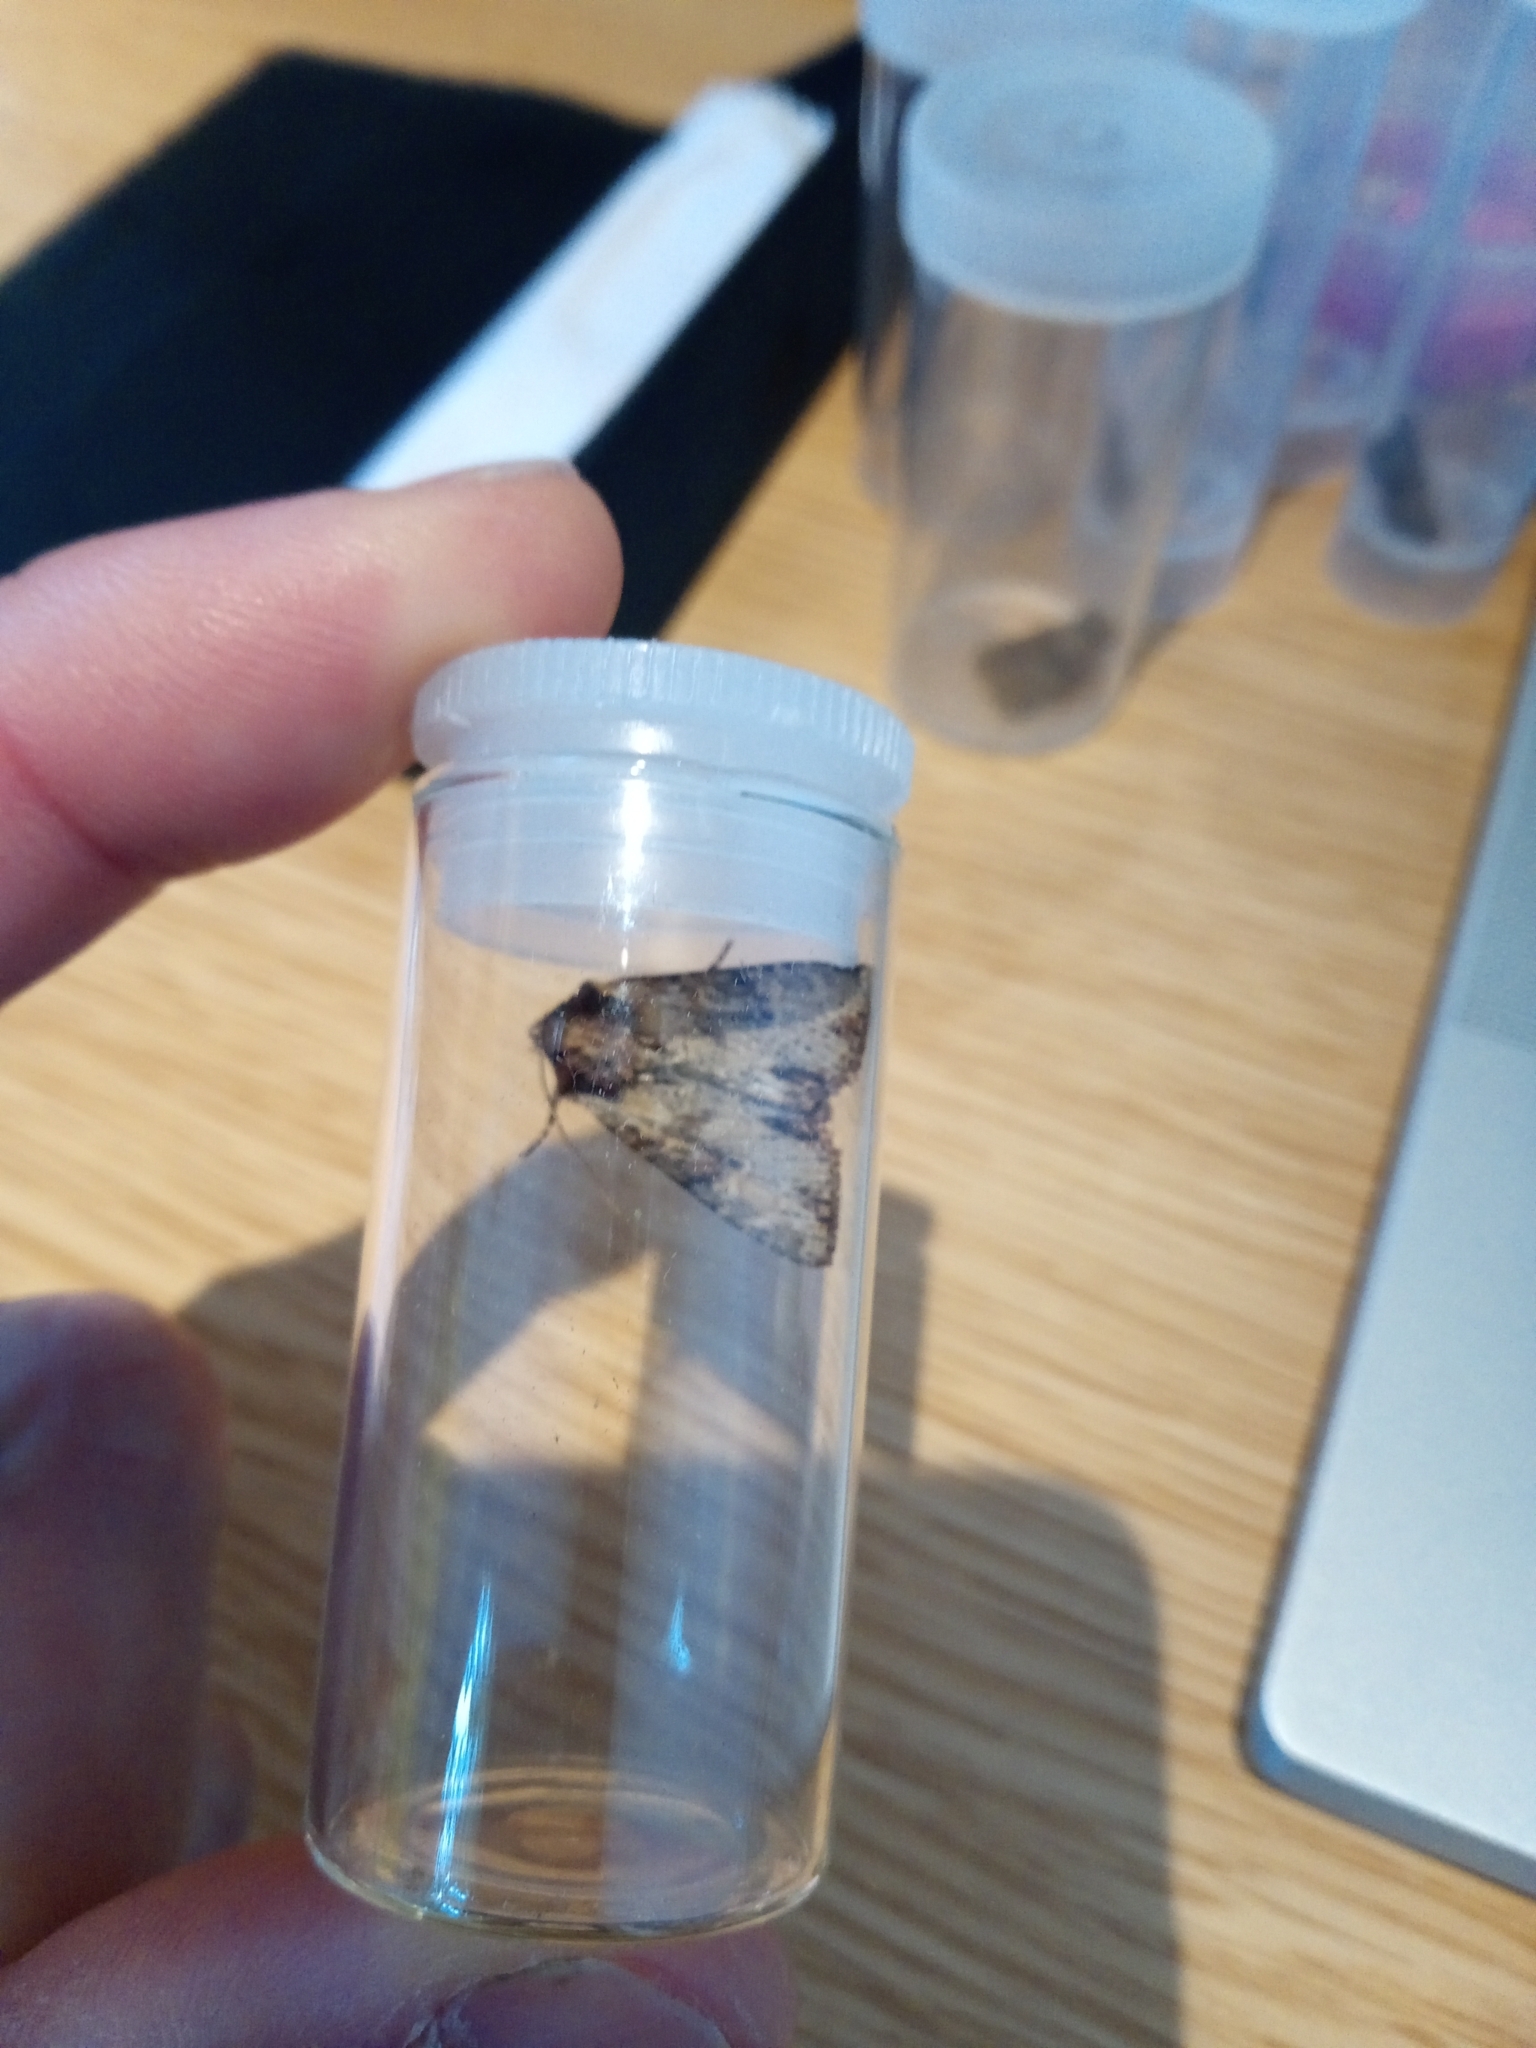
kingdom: Animalia
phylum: Arthropoda
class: Insecta
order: Lepidoptera
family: Noctuidae
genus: Apamea
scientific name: Apamea crenata
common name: Clouded-bordered brindle
